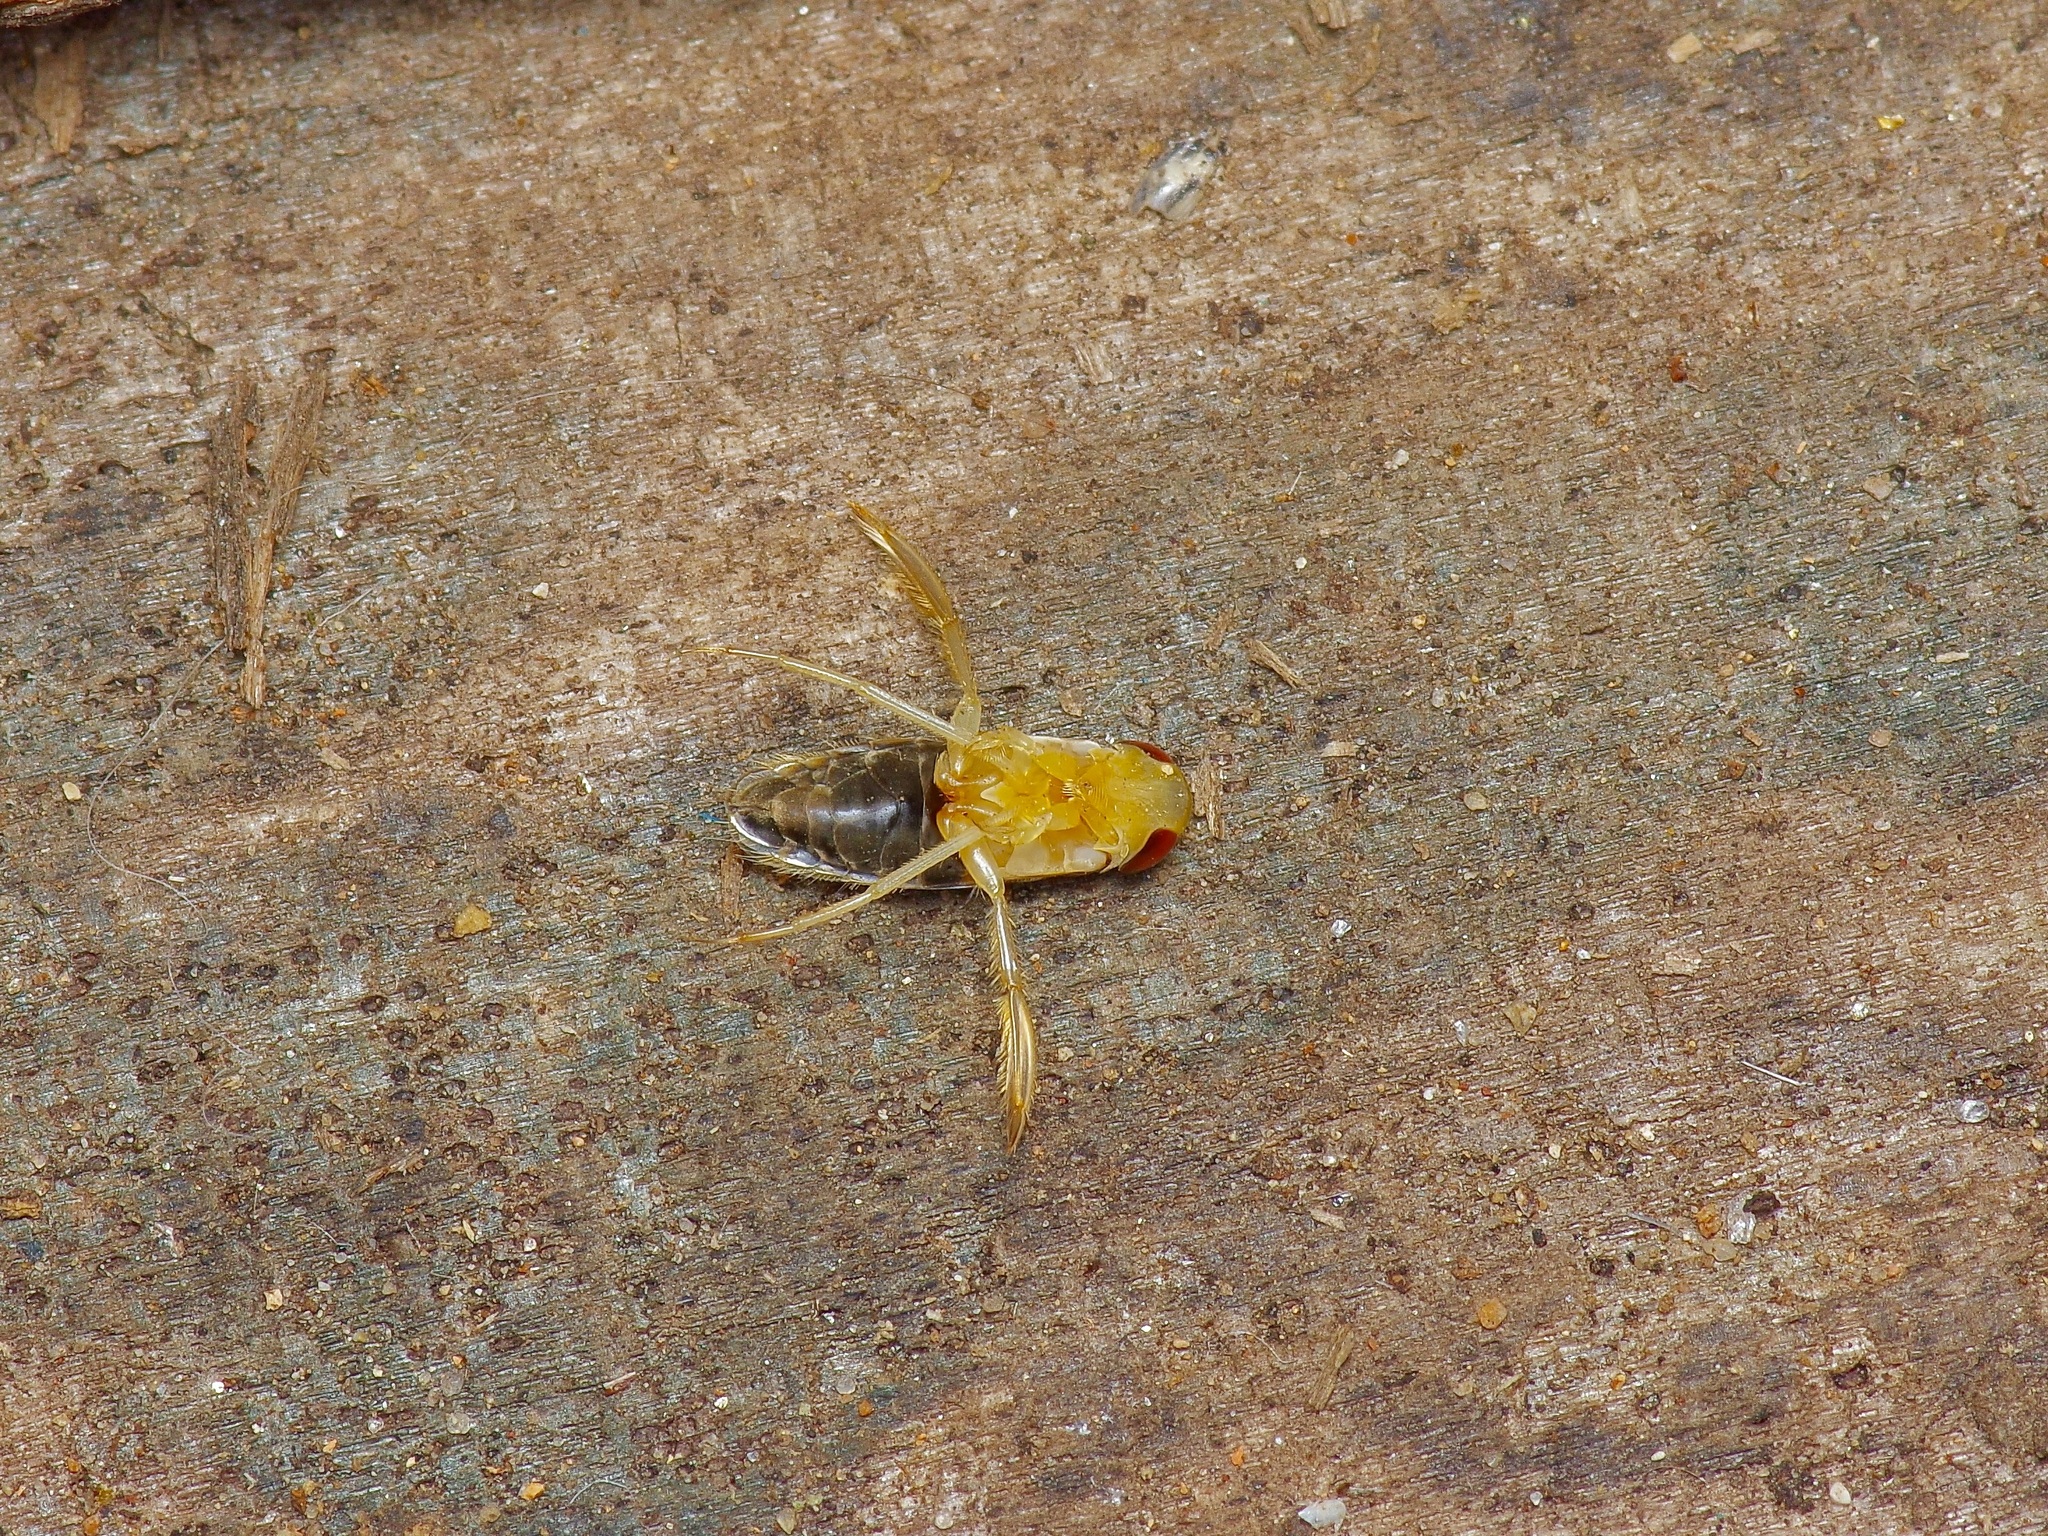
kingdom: Animalia
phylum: Arthropoda
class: Insecta
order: Hemiptera
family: Corixidae
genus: Corisella
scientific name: Corisella
